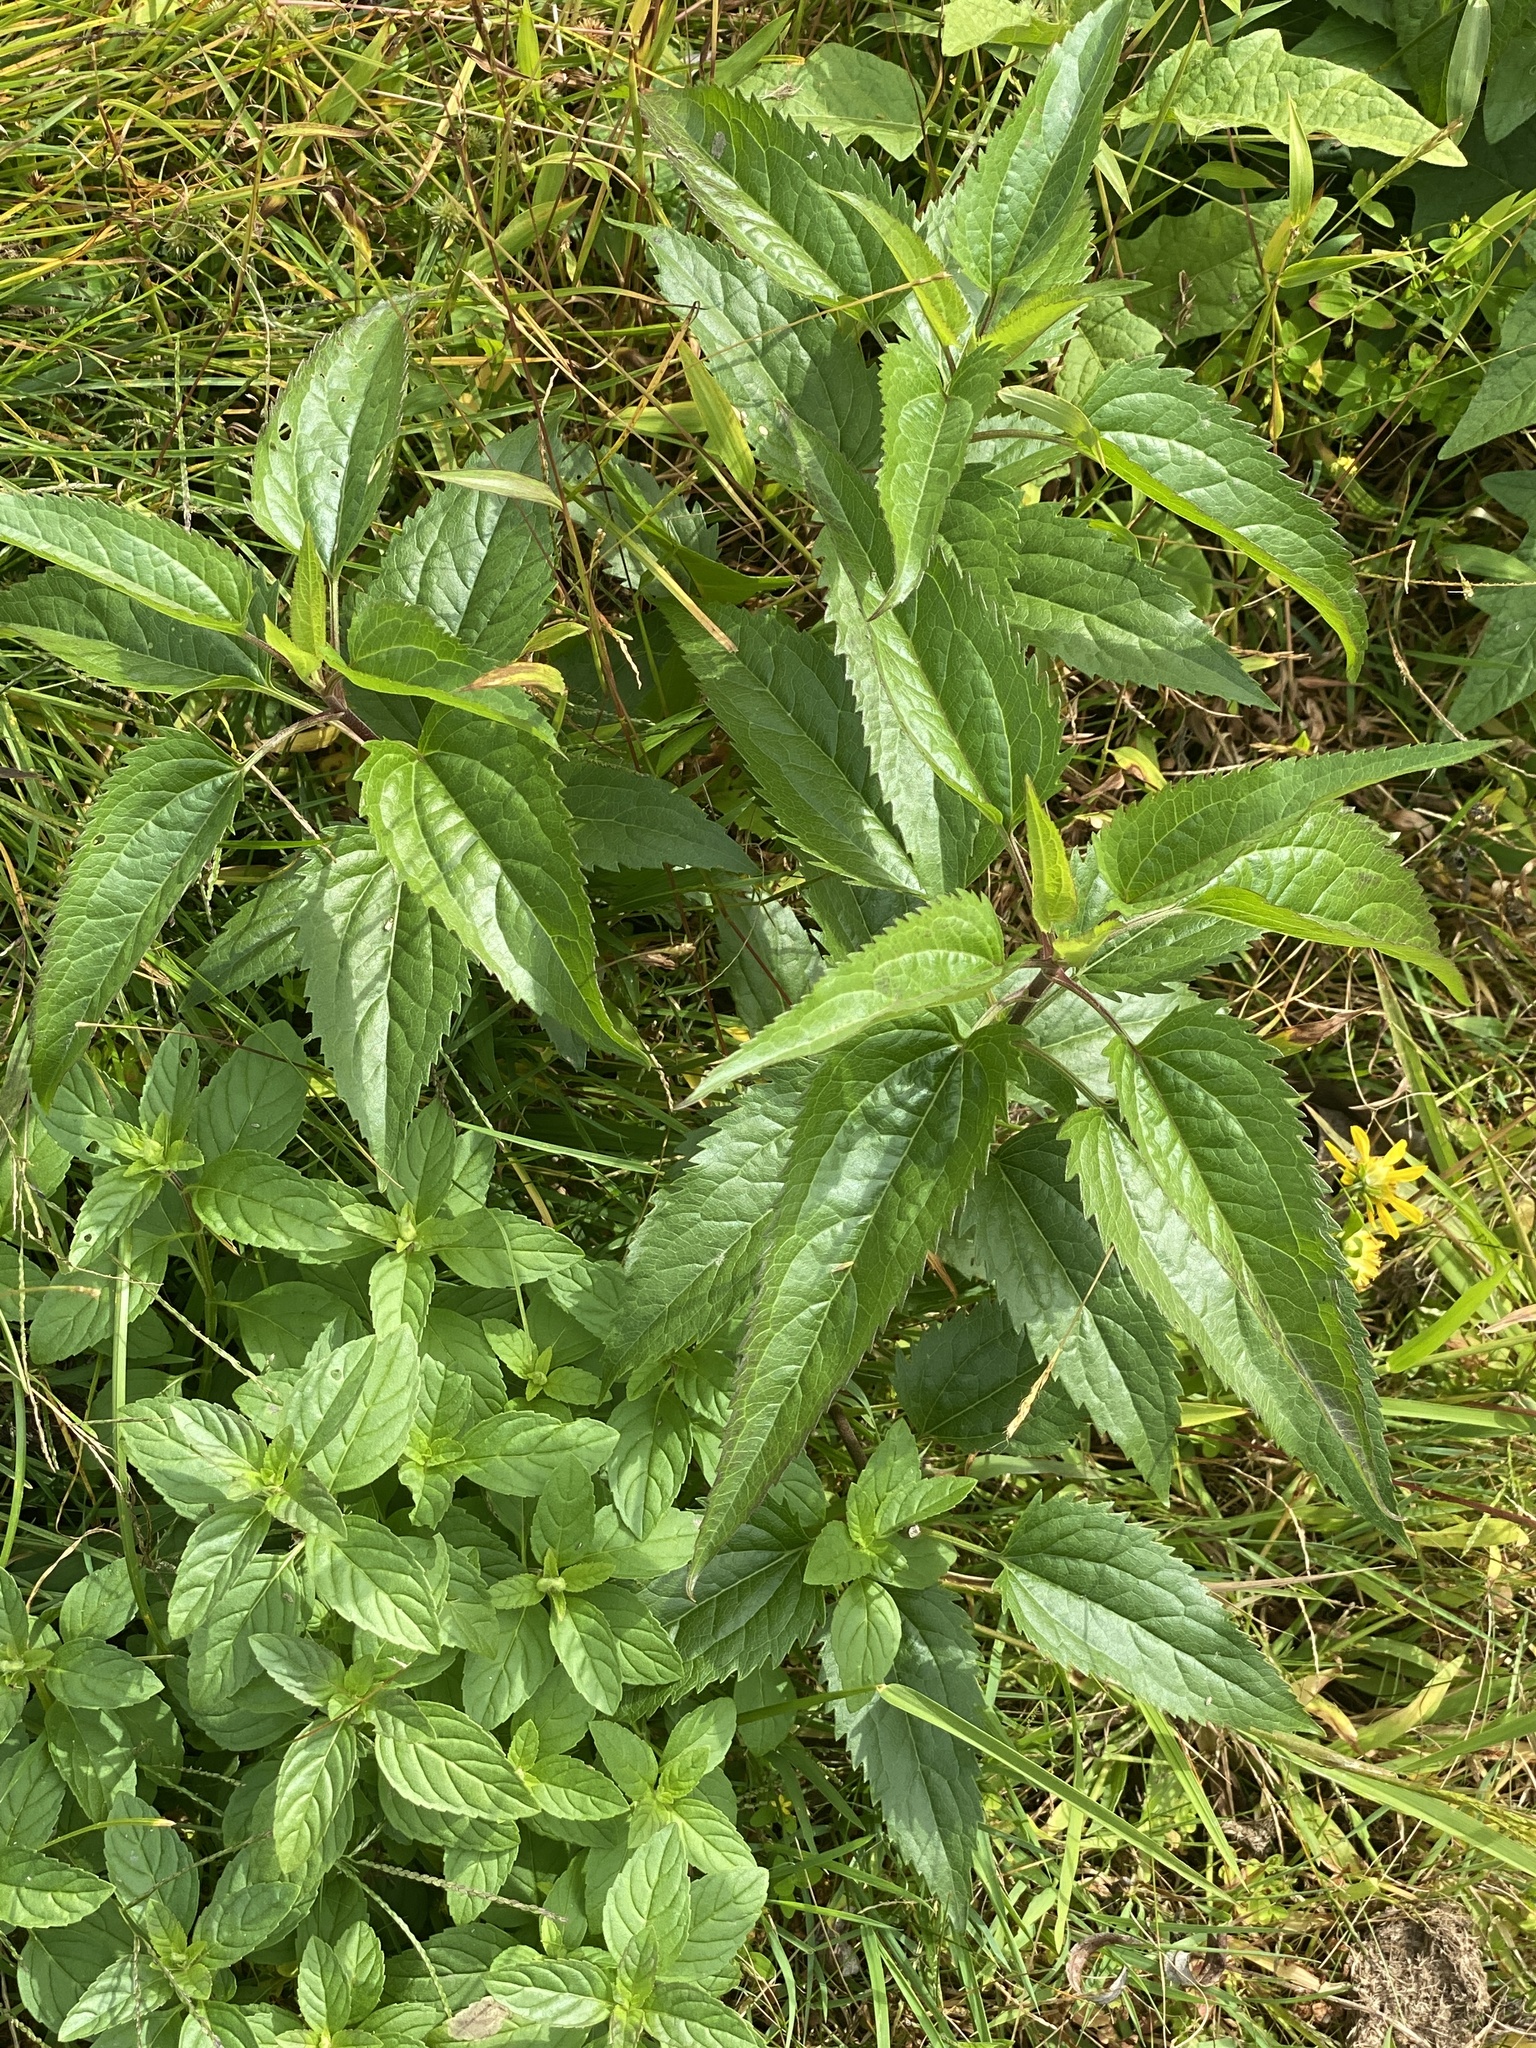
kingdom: Plantae
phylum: Tracheophyta
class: Magnoliopsida
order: Asterales
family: Asteraceae
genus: Eupatorium
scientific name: Eupatorium serotinum
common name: Late boneset
